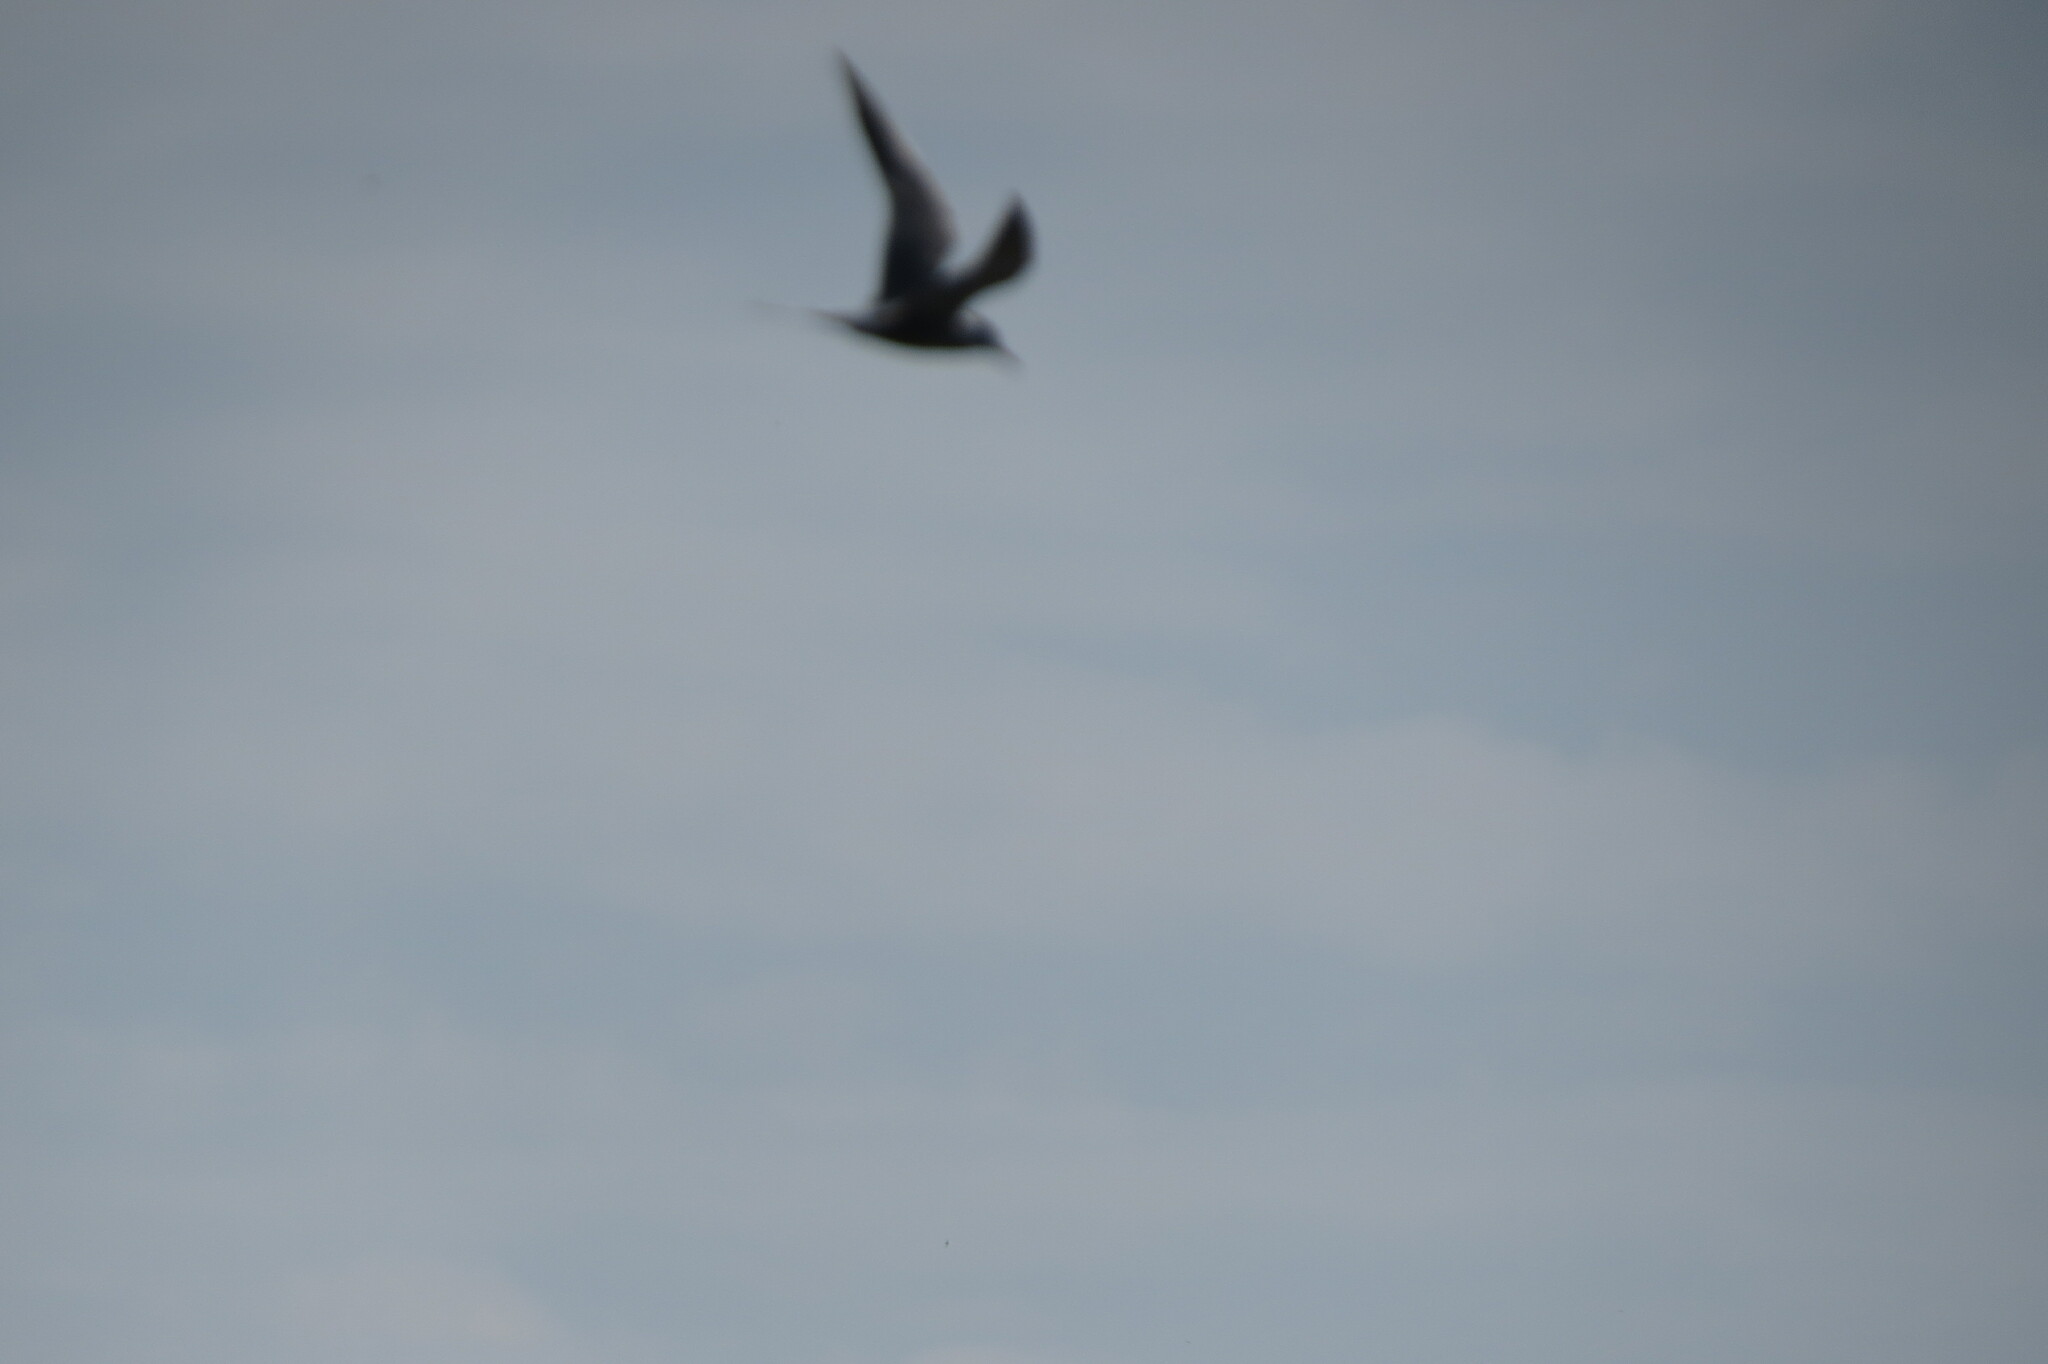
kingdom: Animalia
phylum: Chordata
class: Aves
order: Charadriiformes
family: Laridae
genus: Sterna
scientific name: Sterna hirundo
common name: Common tern
